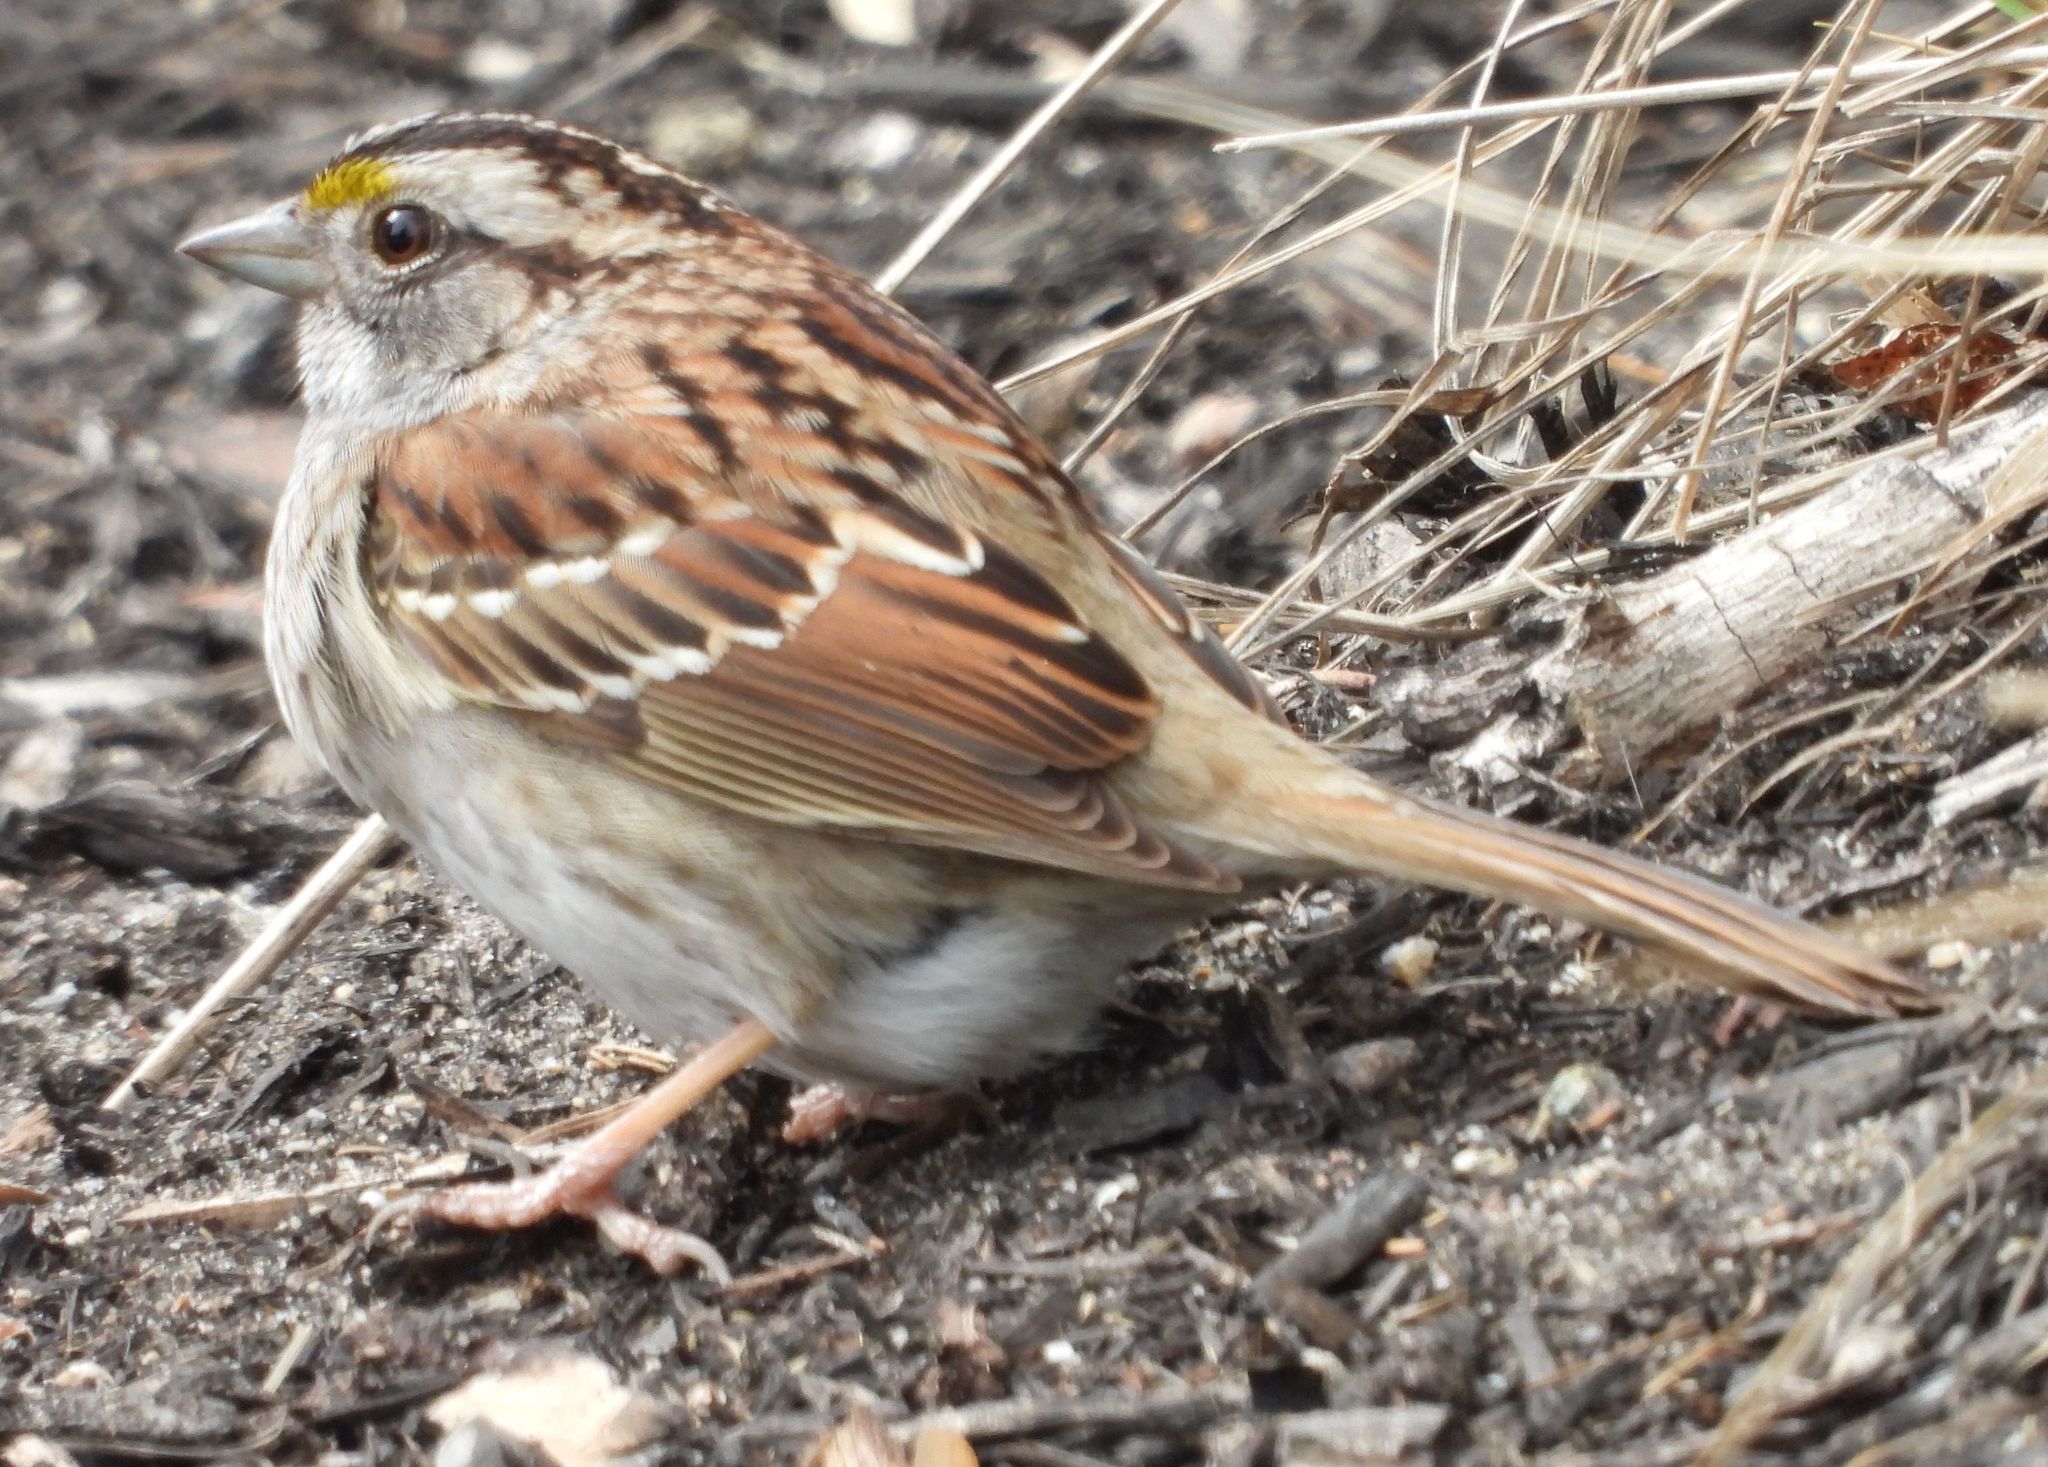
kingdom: Animalia
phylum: Chordata
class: Aves
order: Passeriformes
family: Passerellidae
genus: Zonotrichia
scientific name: Zonotrichia albicollis
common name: White-throated sparrow
